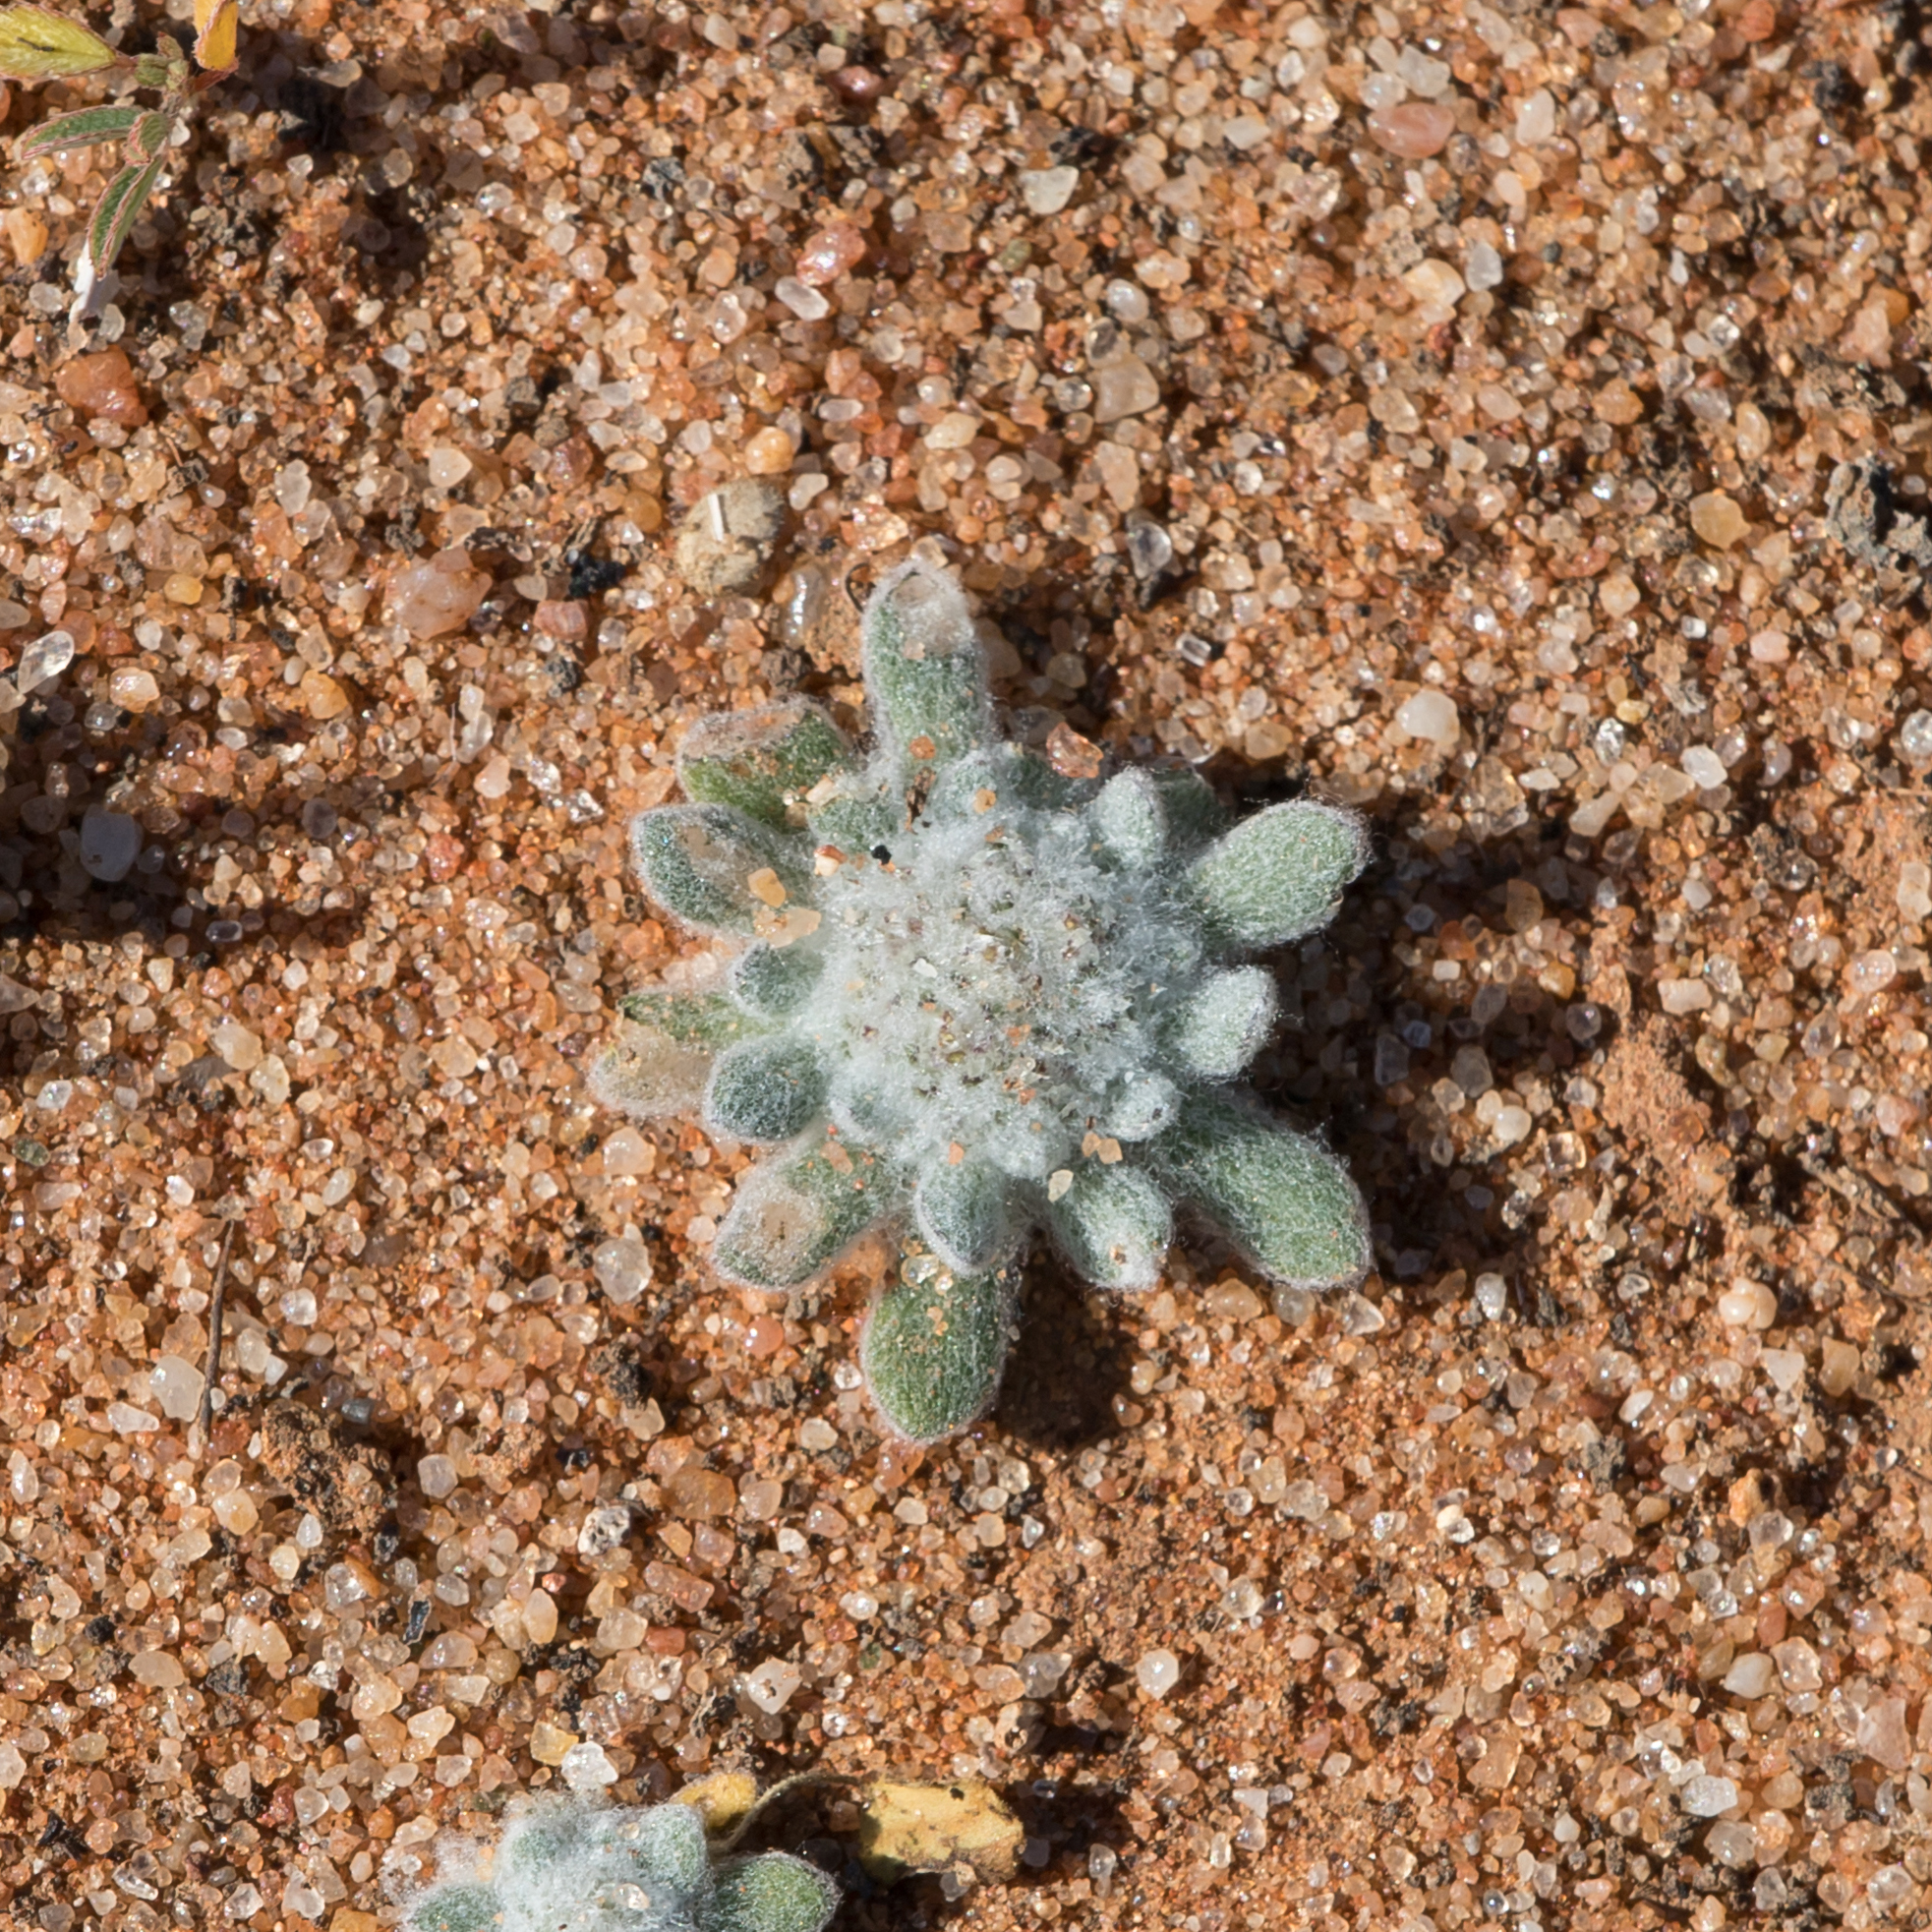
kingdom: Plantae
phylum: Tracheophyta
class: Magnoliopsida
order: Asterales
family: Asteraceae
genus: Chthonocephalus
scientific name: Chthonocephalus pseudevax
